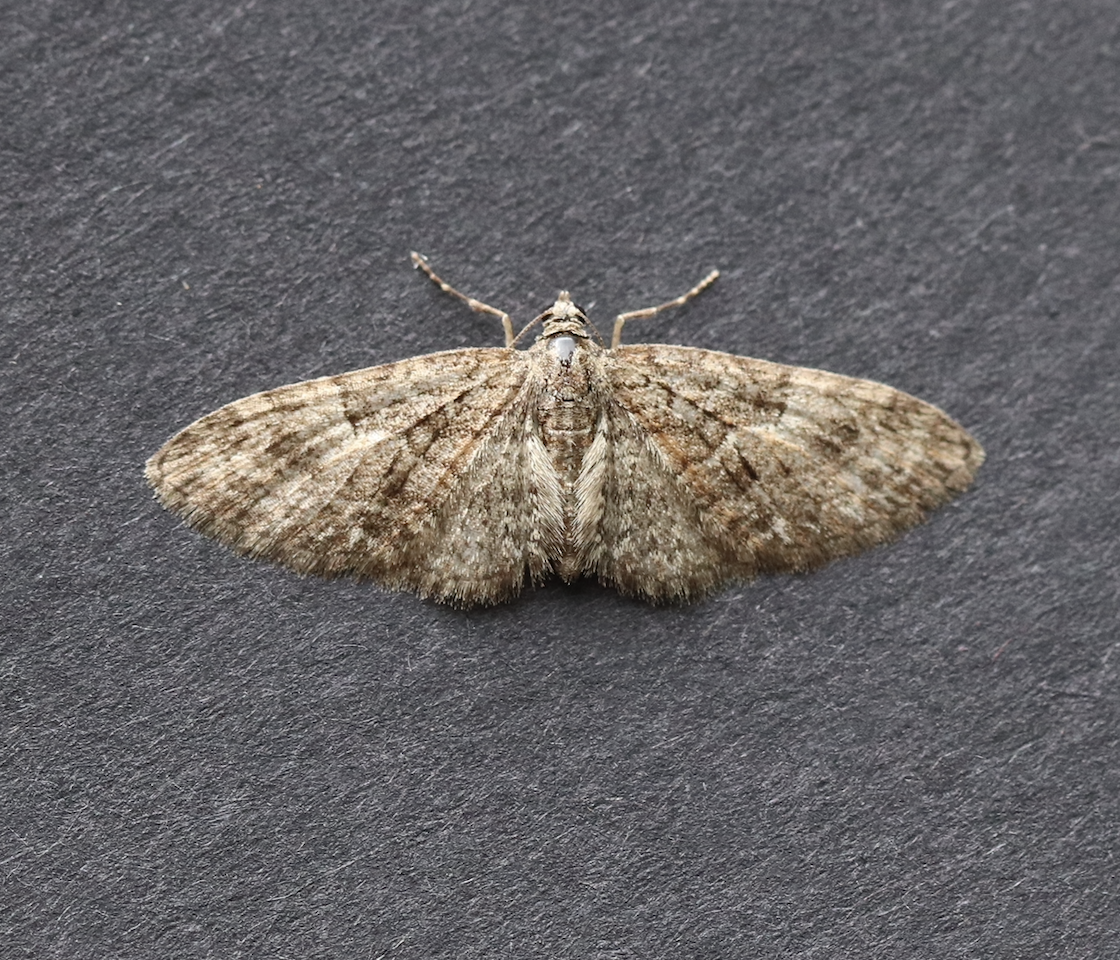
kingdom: Animalia
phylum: Arthropoda
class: Insecta
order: Lepidoptera
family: Geometridae
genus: Eupithecia
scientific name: Eupithecia abbreviata
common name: Brindled pug
